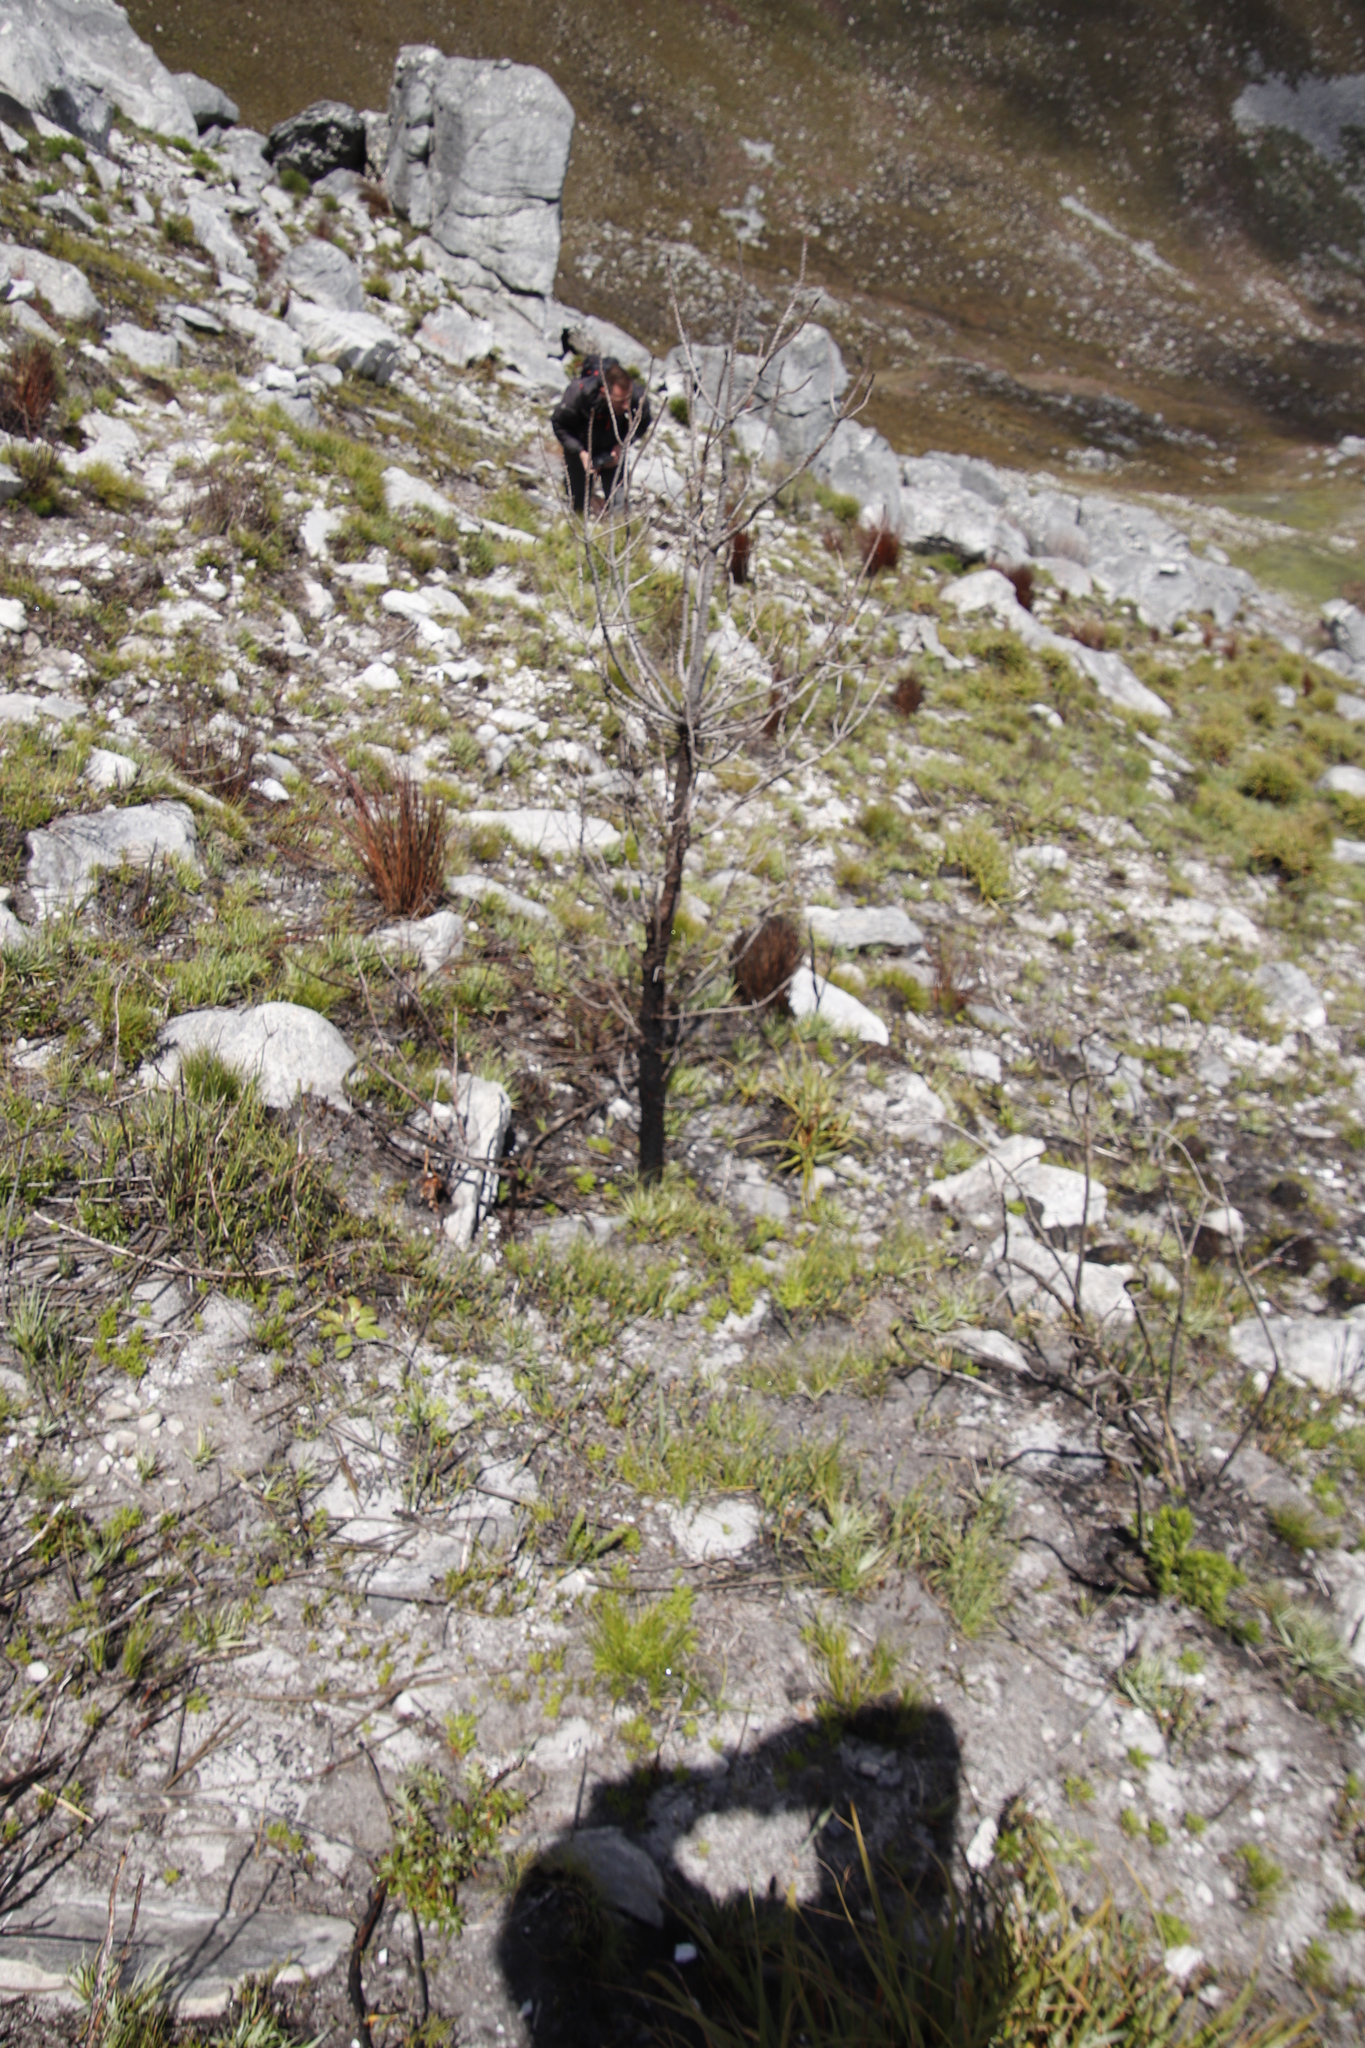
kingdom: Plantae
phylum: Tracheophyta
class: Pinopsida
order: Pinales
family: Pinaceae
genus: Pinus
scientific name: Pinus pinaster
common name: Maritime pine
